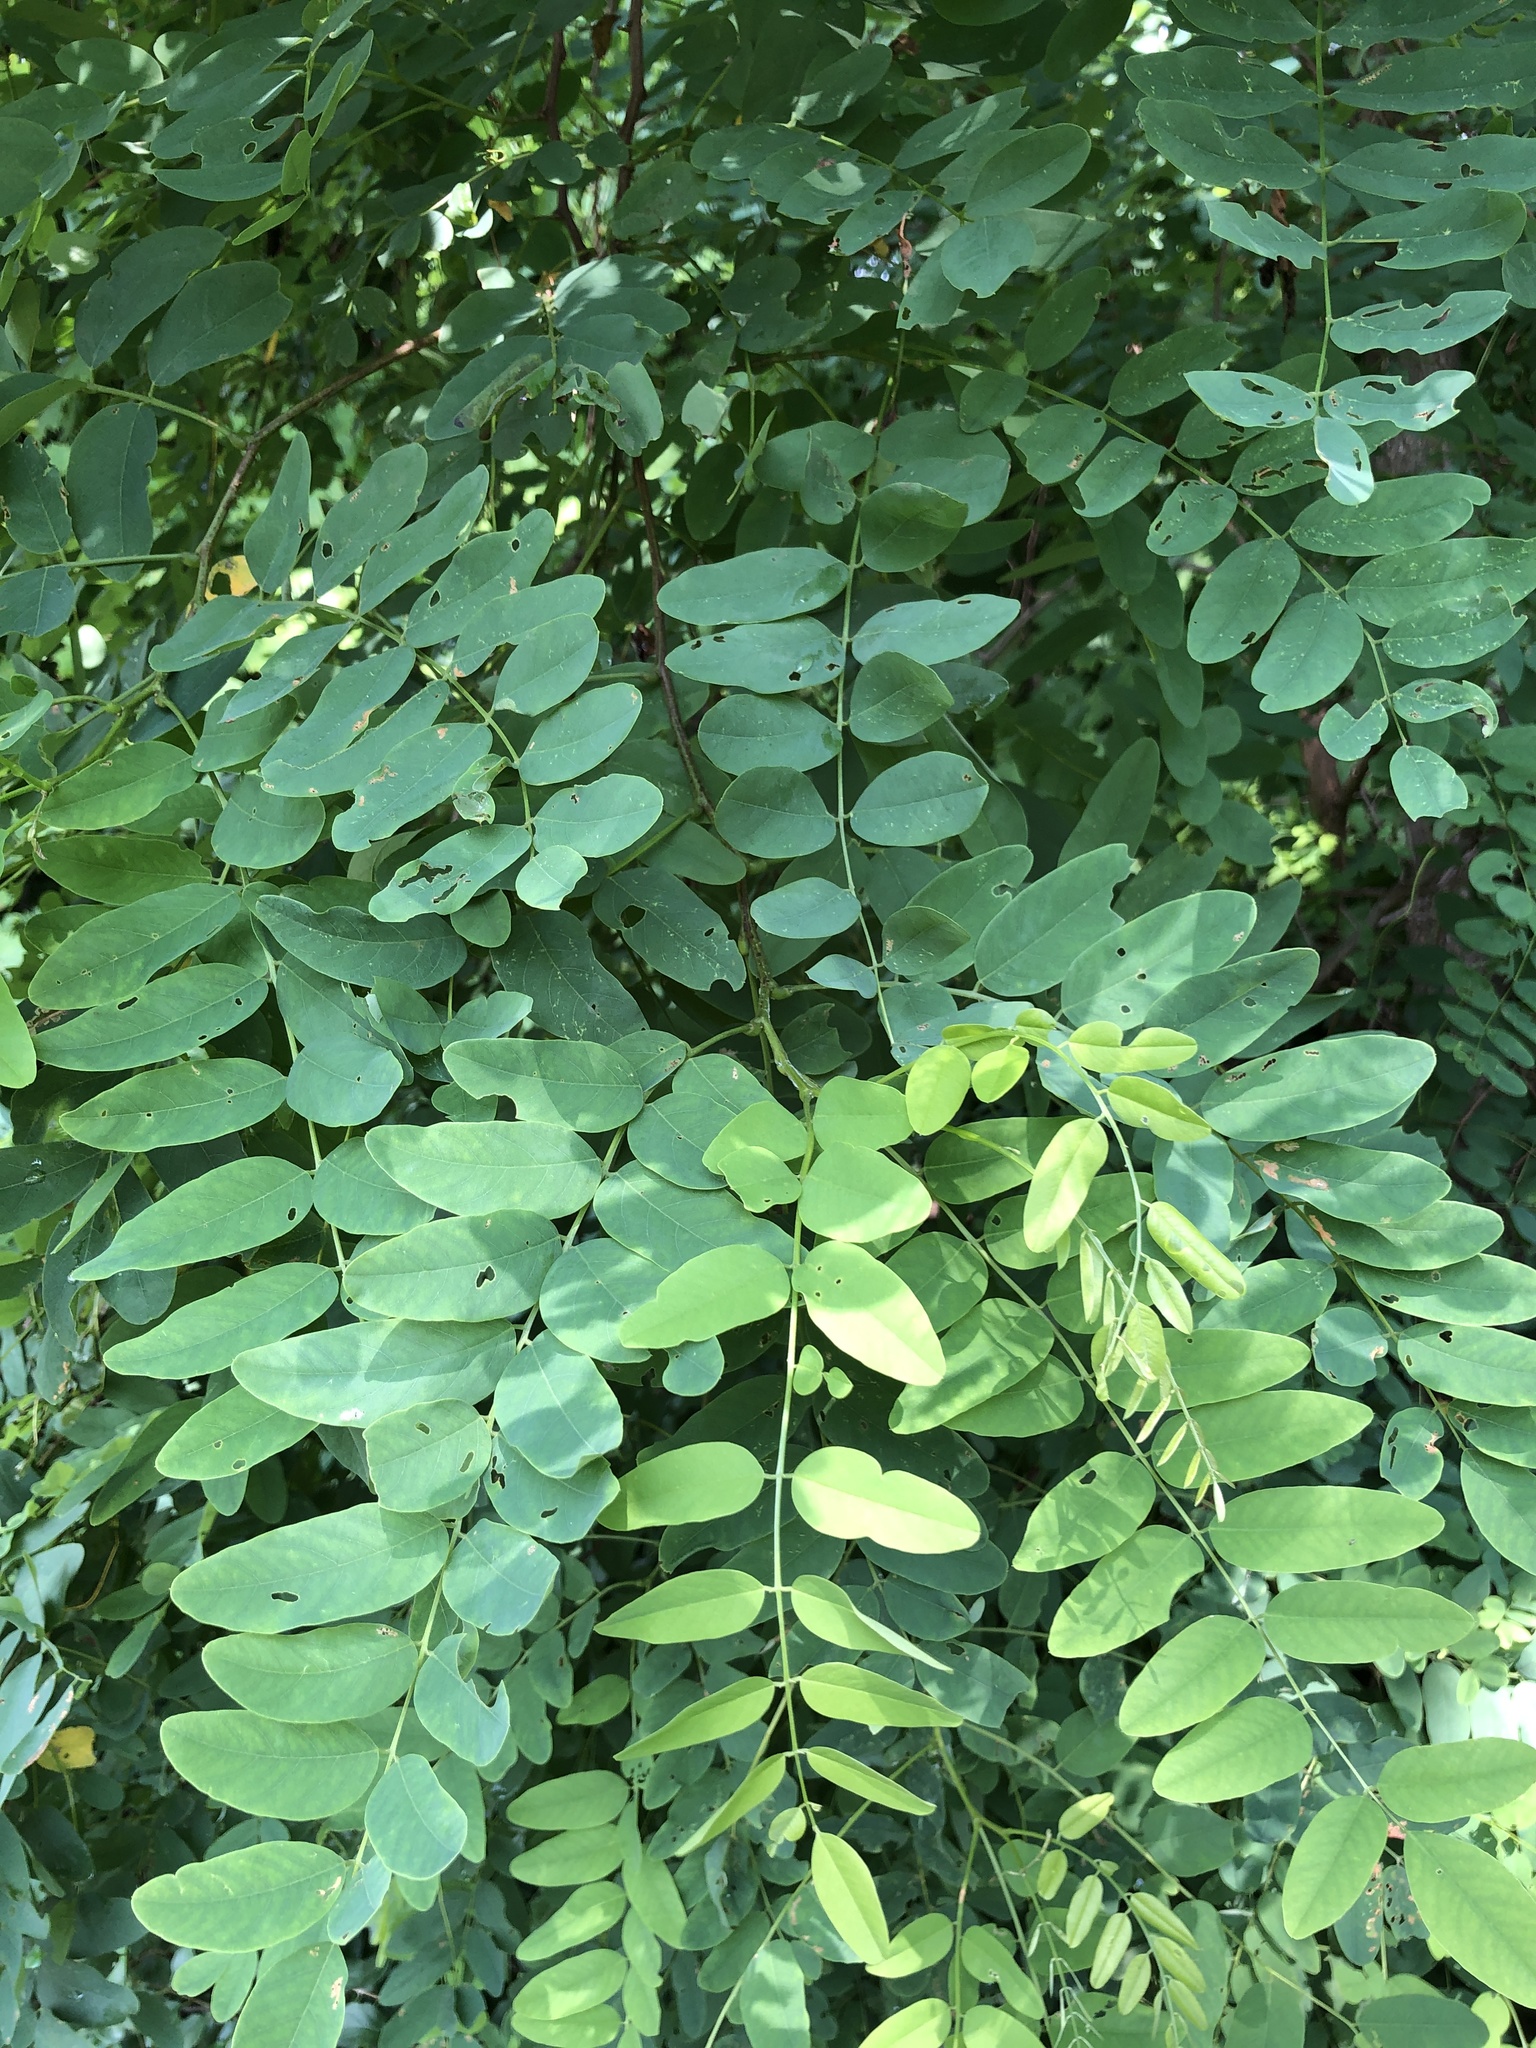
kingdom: Plantae
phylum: Tracheophyta
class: Magnoliopsida
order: Fabales
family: Fabaceae
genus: Robinia
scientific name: Robinia pseudoacacia
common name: Black locust
